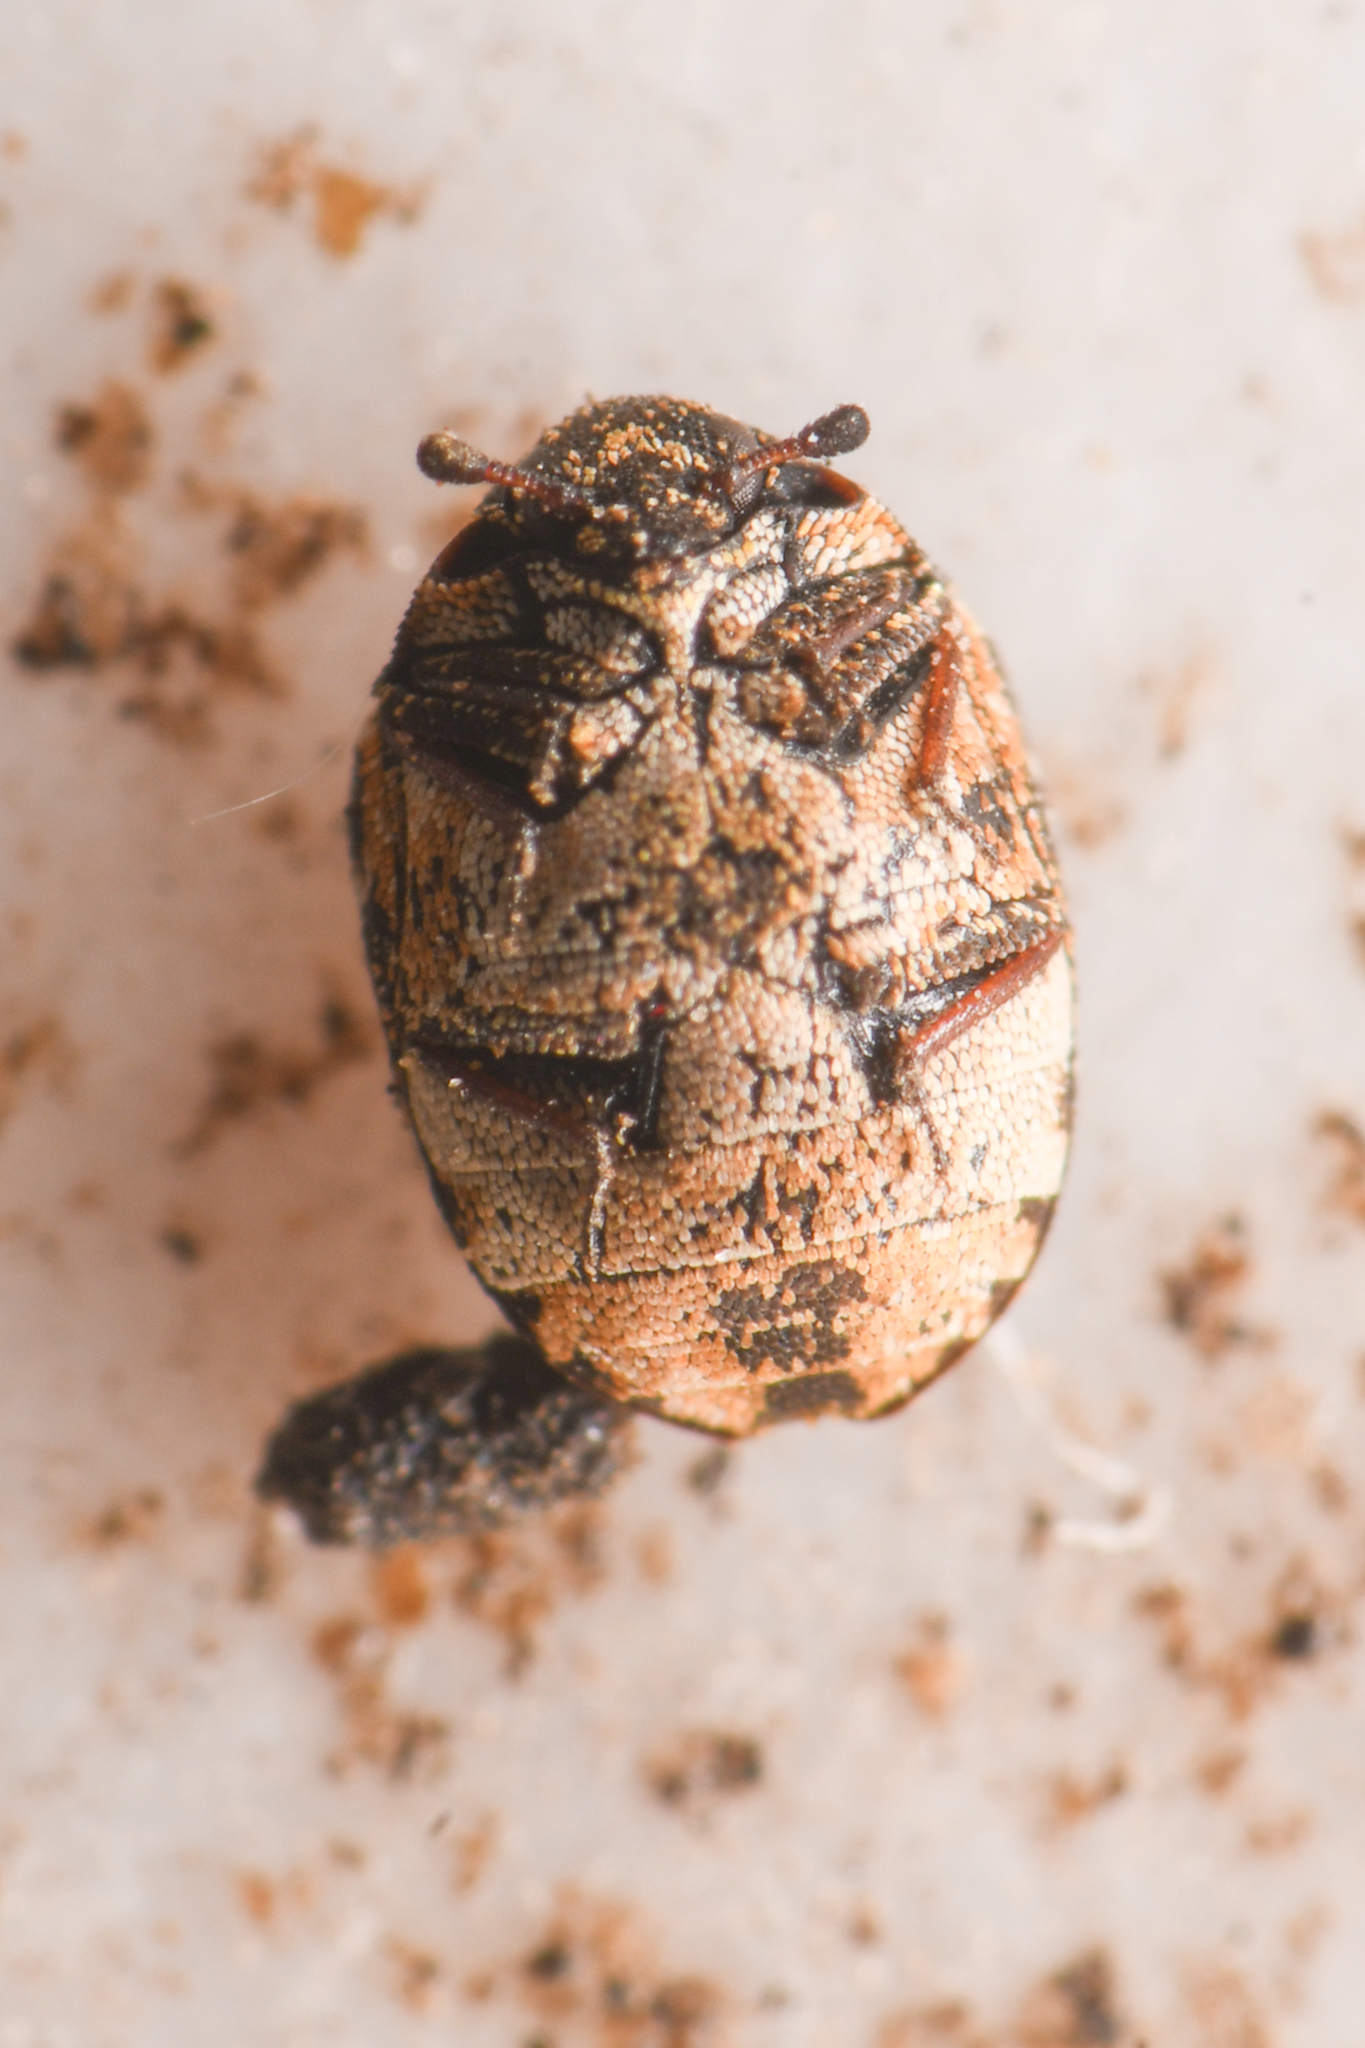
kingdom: Animalia
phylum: Arthropoda
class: Insecta
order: Coleoptera
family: Dermestidae
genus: Anthrenus
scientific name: Anthrenus lepidus
